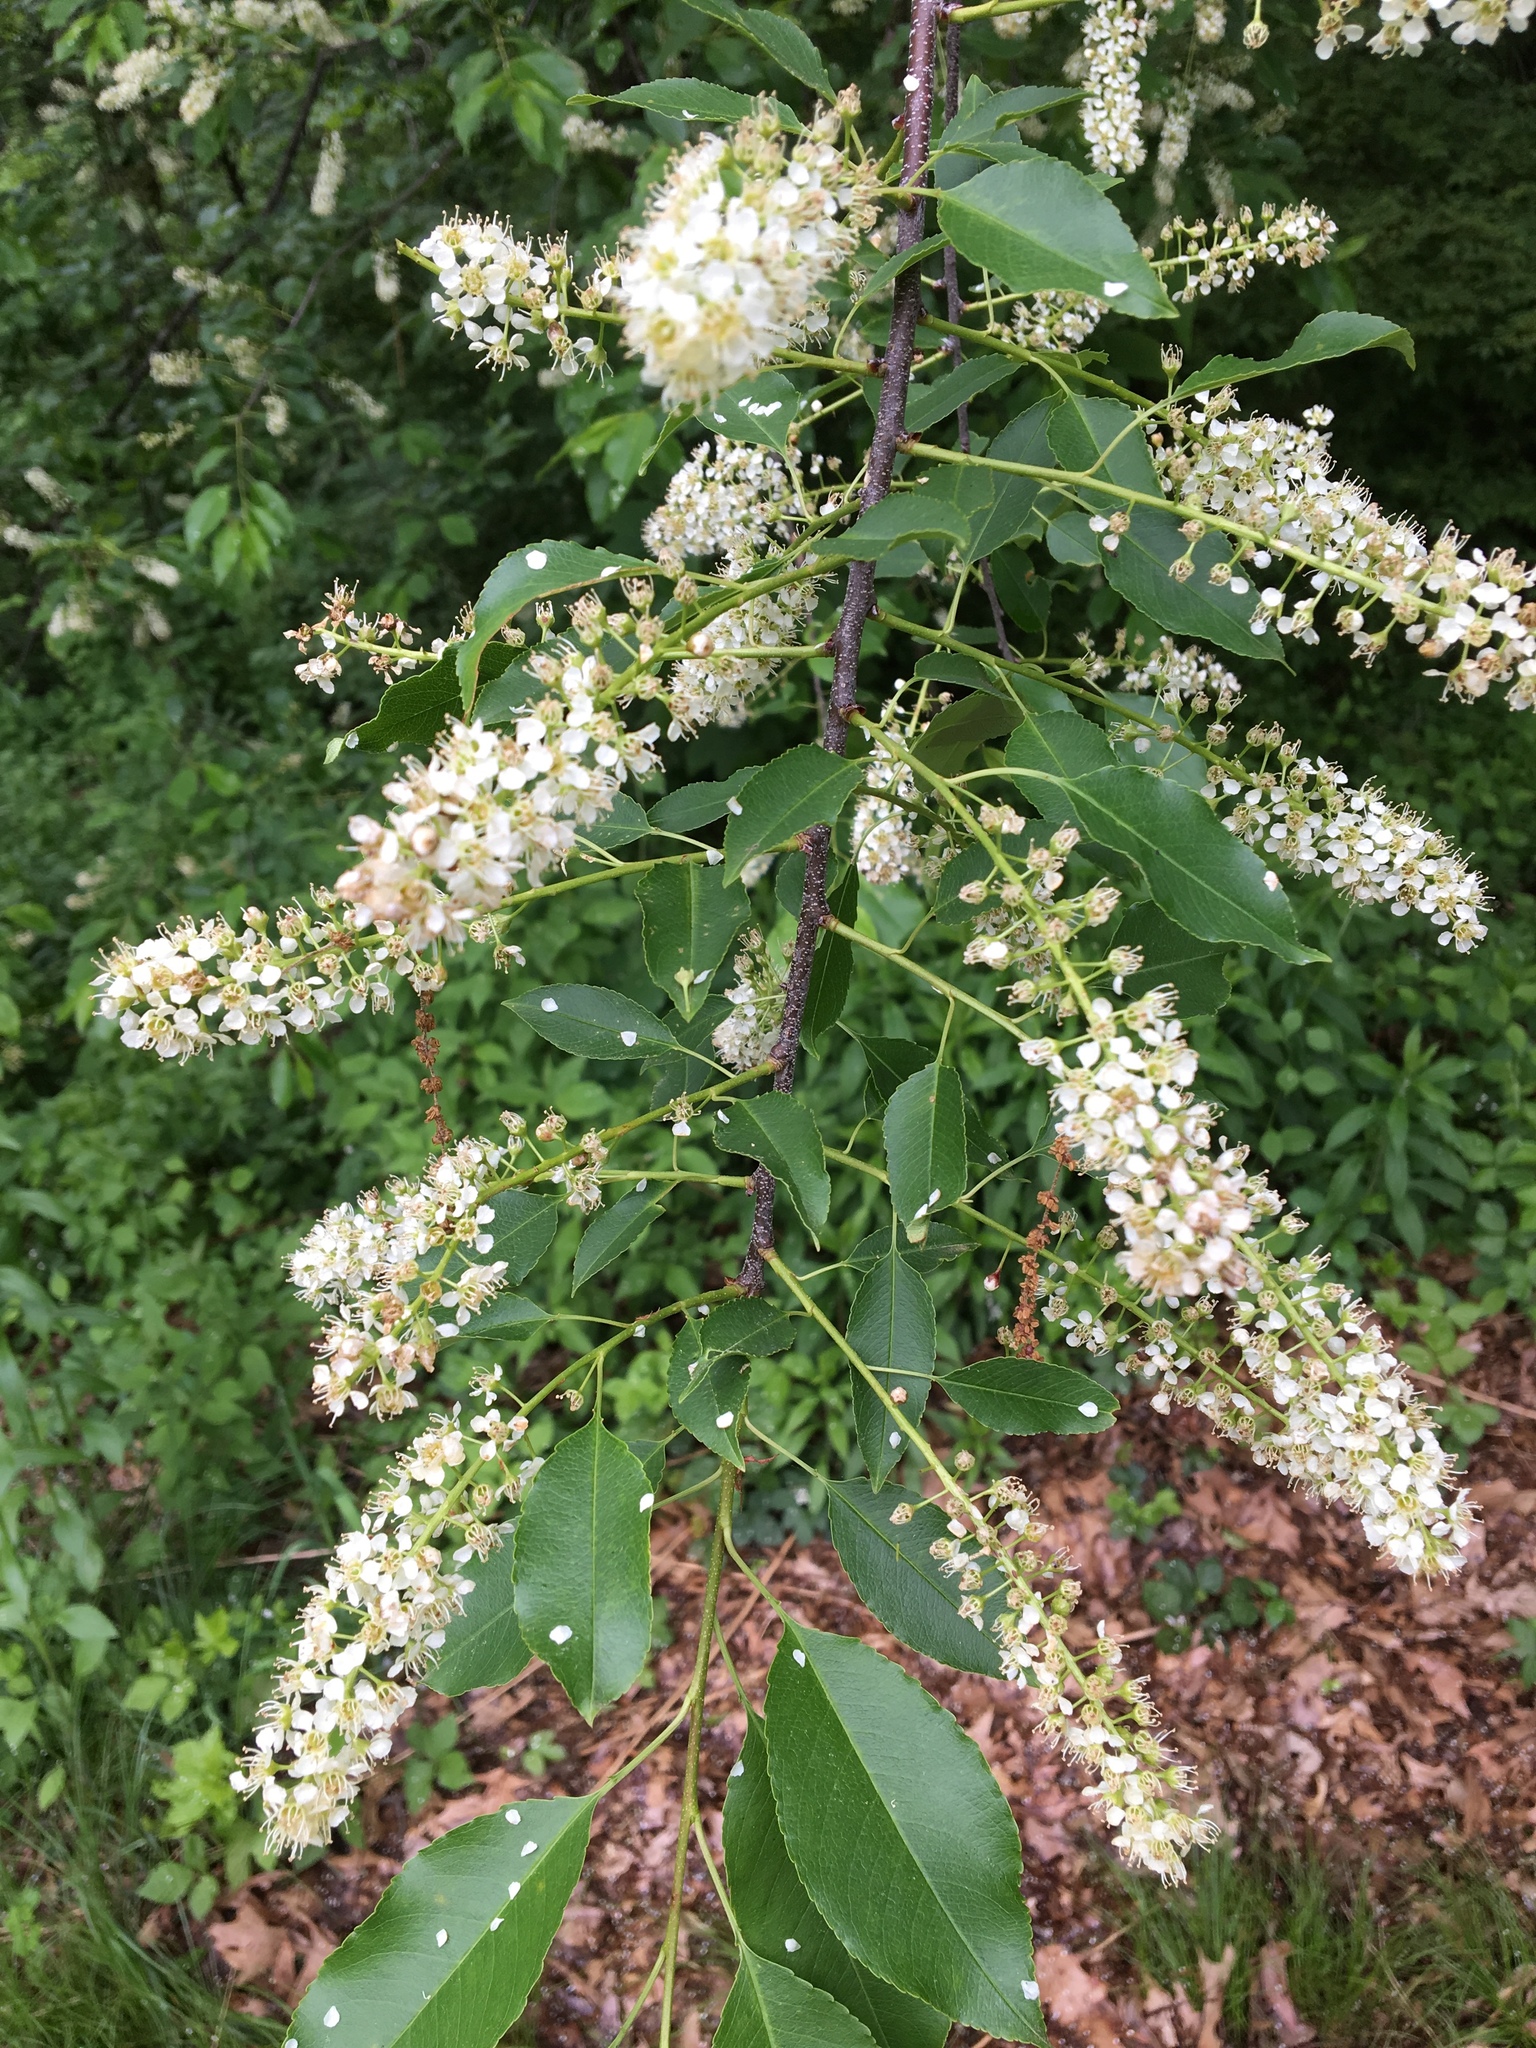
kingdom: Plantae
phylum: Tracheophyta
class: Magnoliopsida
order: Rosales
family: Rosaceae
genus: Prunus
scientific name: Prunus serotina
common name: Black cherry
